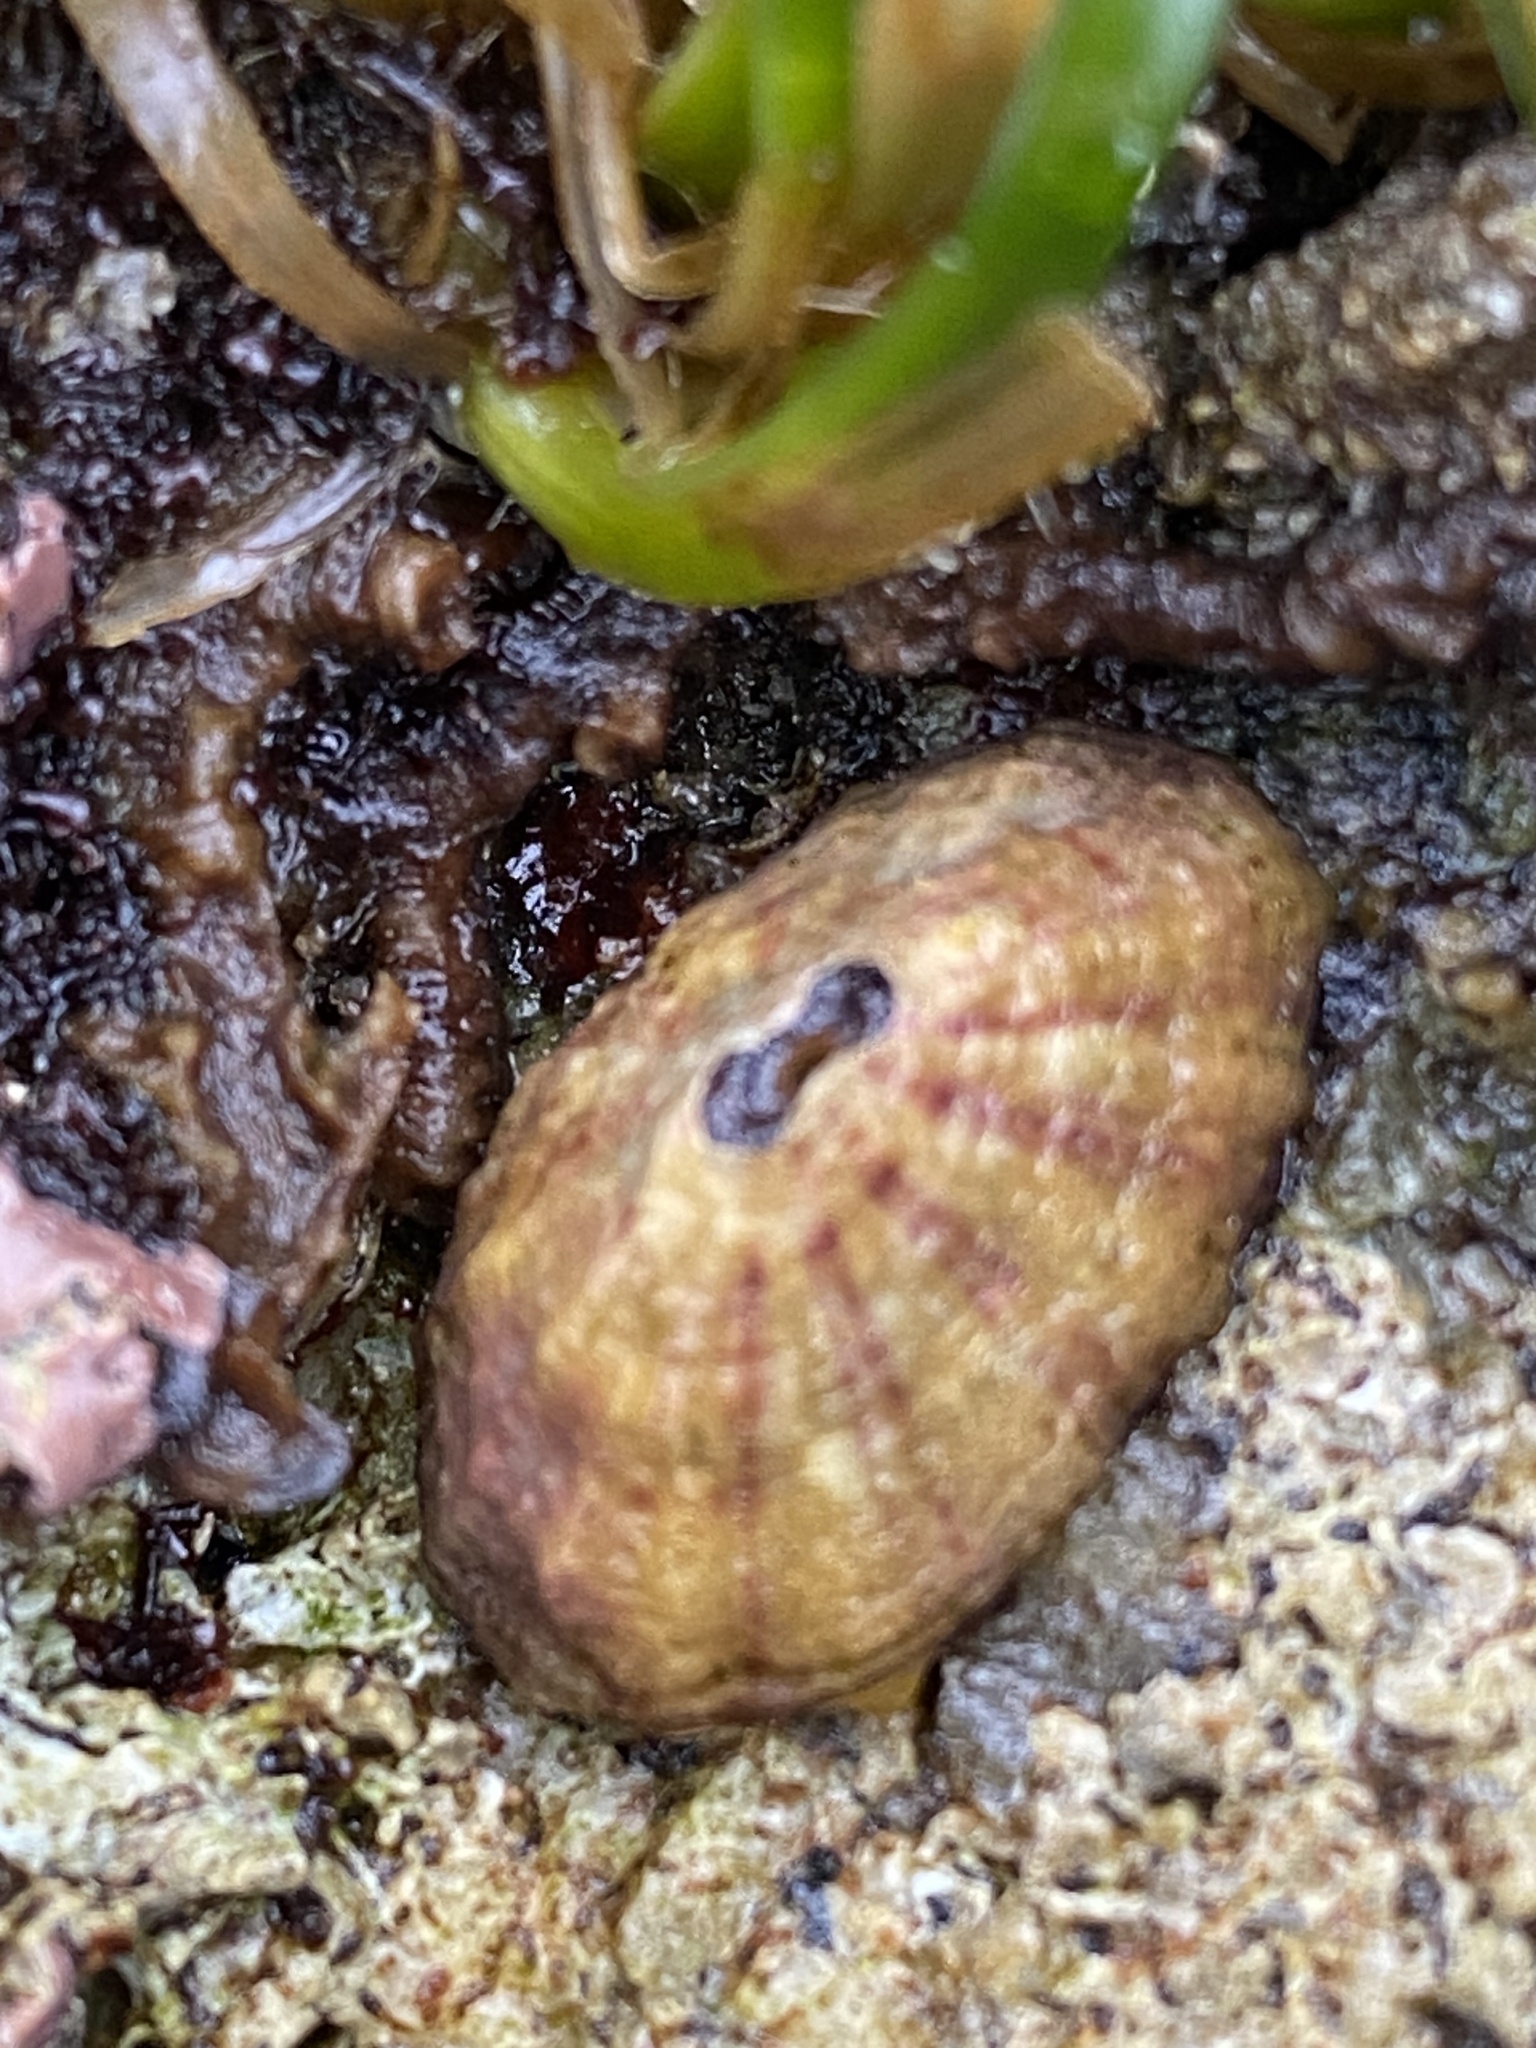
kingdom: Animalia
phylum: Mollusca
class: Gastropoda
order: Lepetellida
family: Fissurellidae
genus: Fissurella
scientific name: Fissurella volcano
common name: Volcano keyhole limpet
